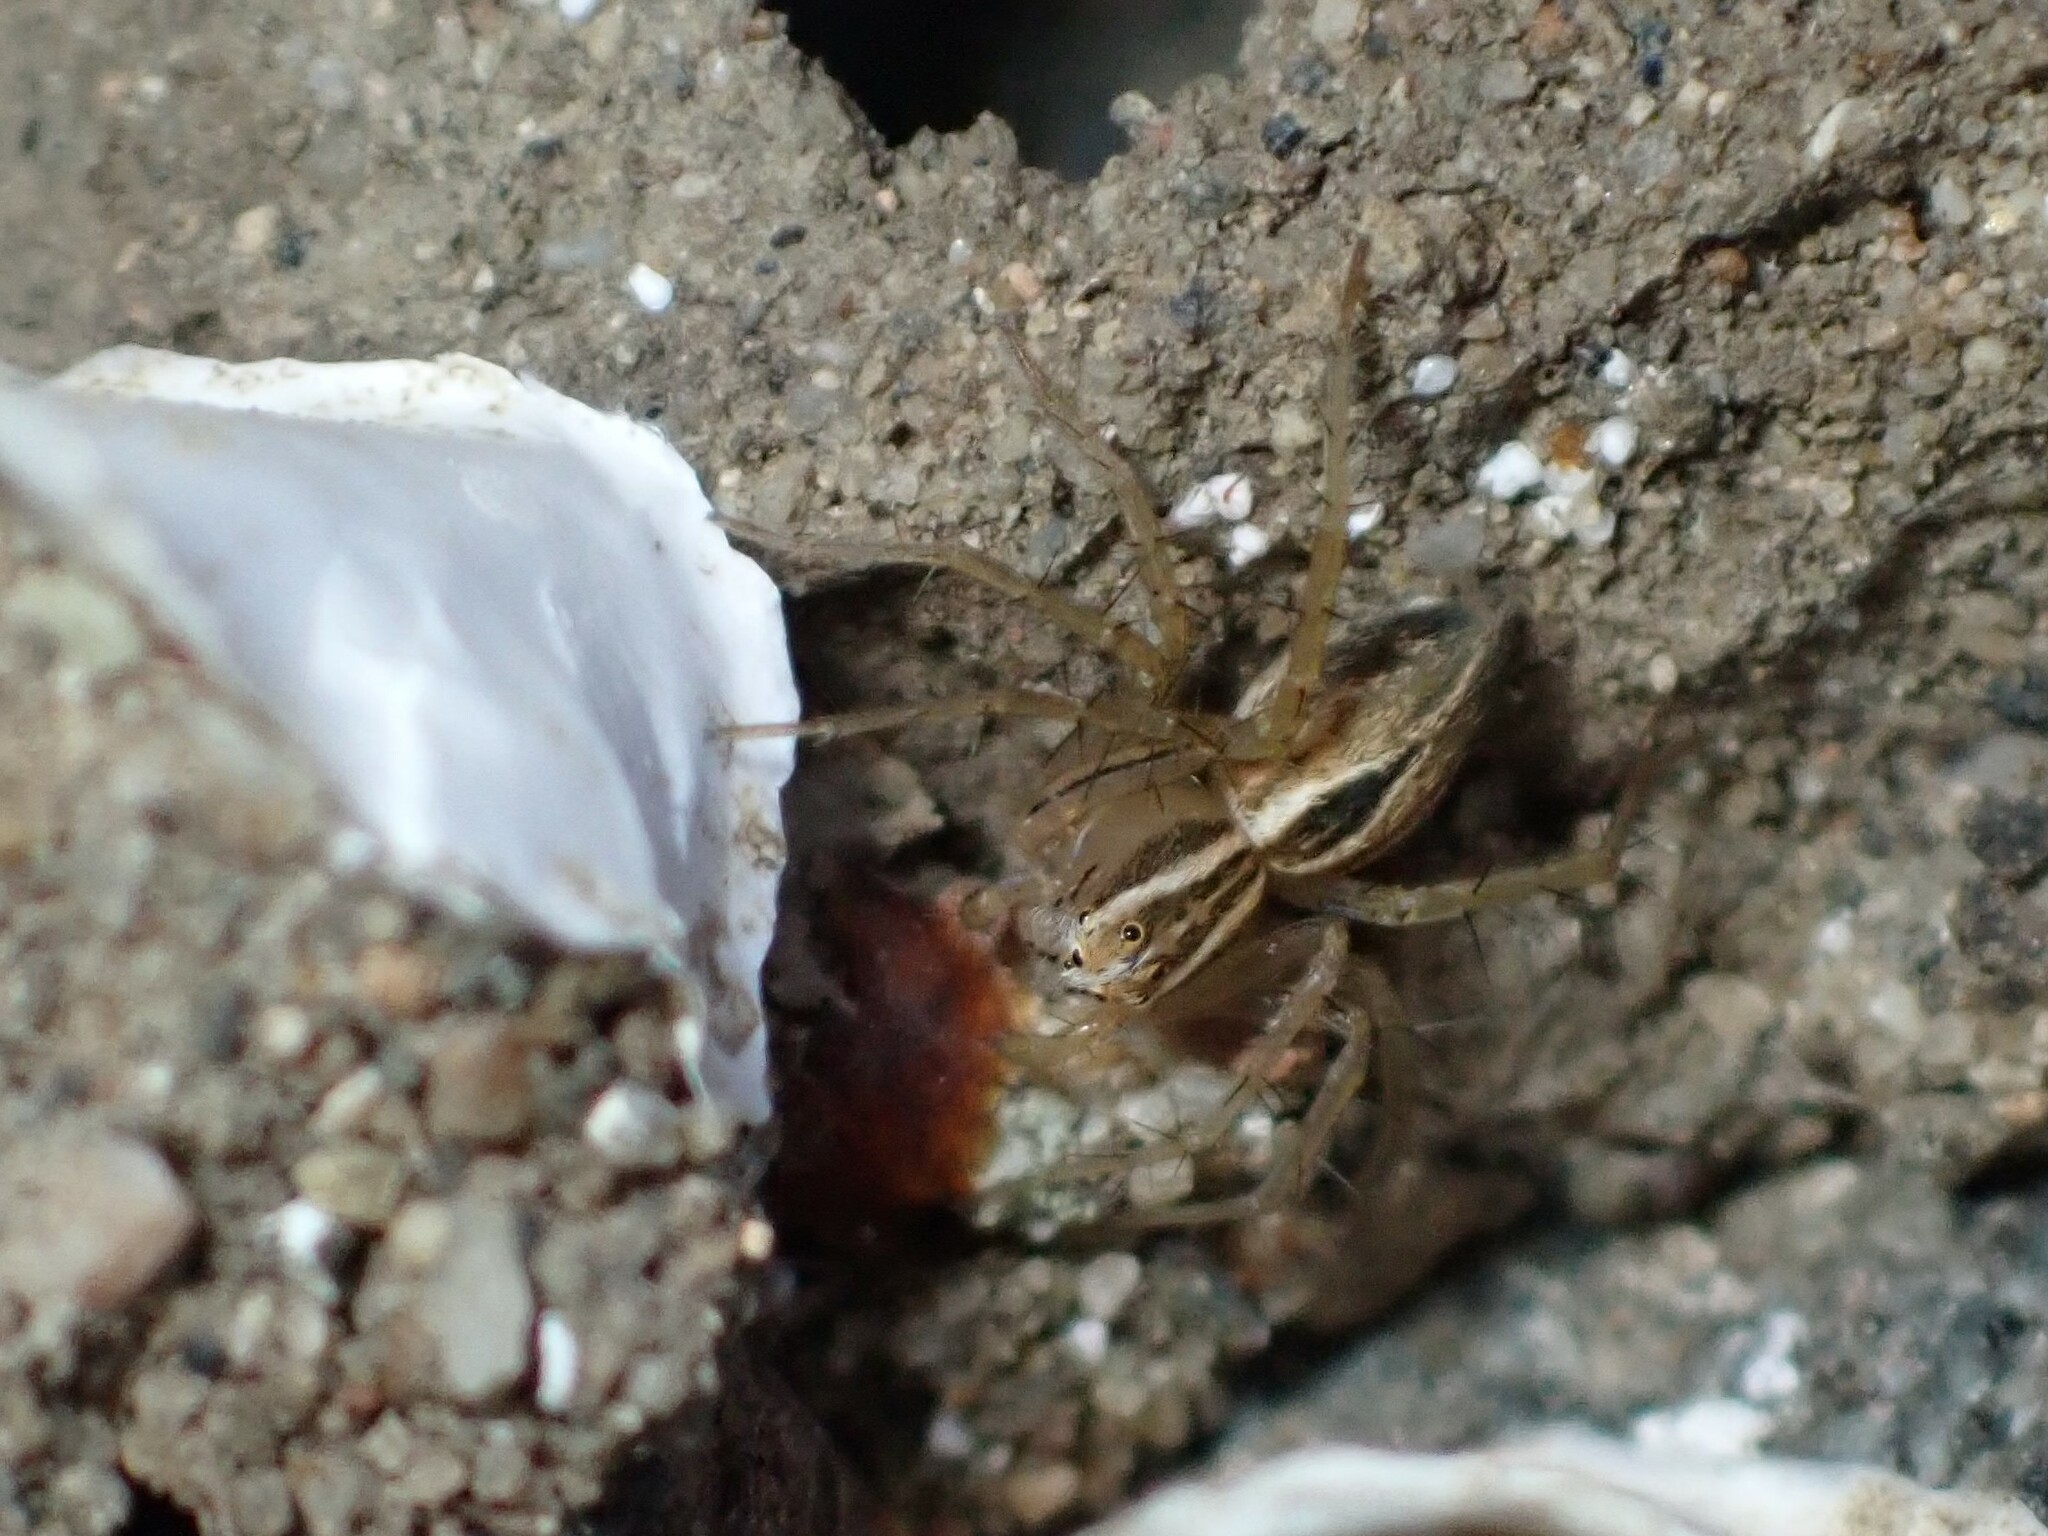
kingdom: Animalia
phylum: Arthropoda
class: Arachnida
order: Araneae
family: Oxyopidae
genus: Oxyopes
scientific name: Oxyopes salticus
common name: Lynx spiders
